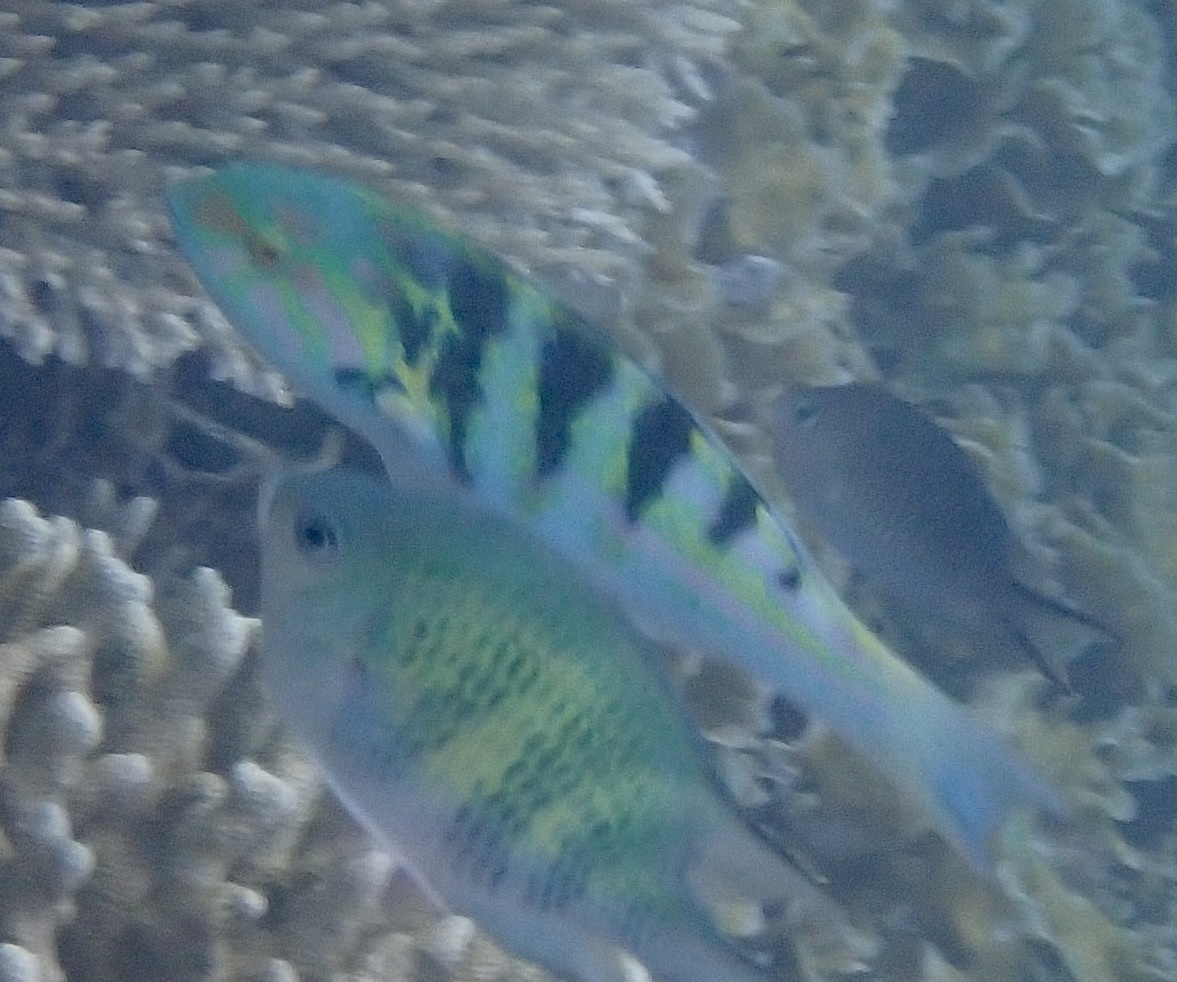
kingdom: Animalia
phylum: Chordata
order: Perciformes
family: Labridae
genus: Thalassoma
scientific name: Thalassoma hardwicke
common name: Sixbar wrasse
